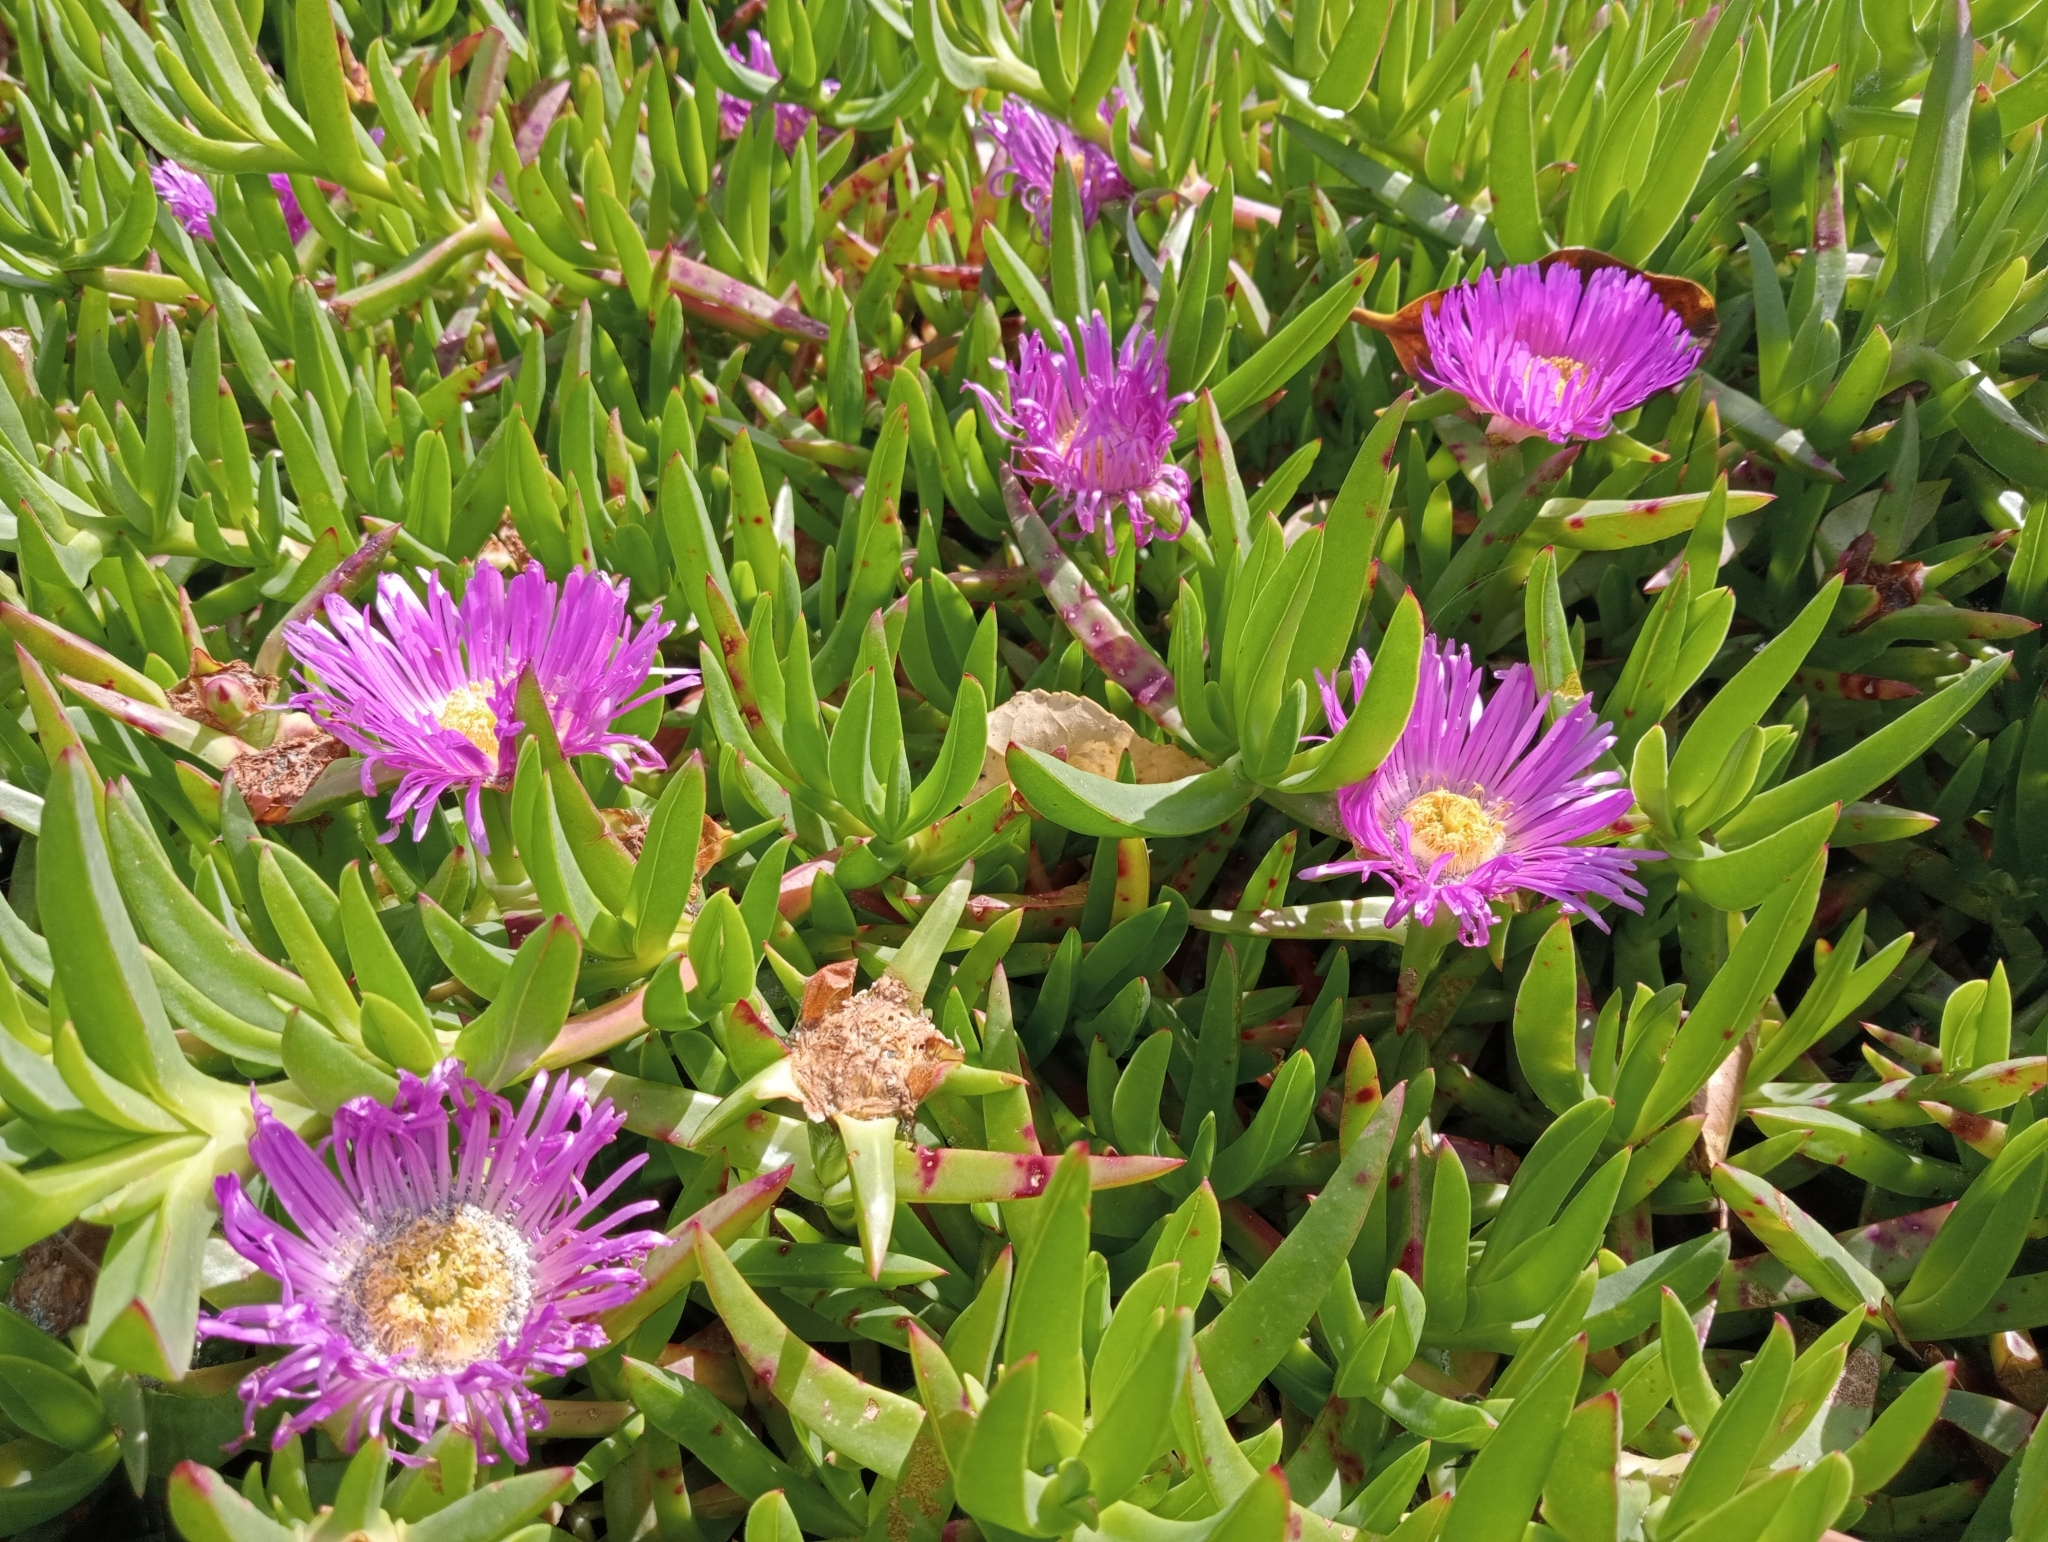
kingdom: Plantae
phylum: Tracheophyta
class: Magnoliopsida
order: Caryophyllales
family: Aizoaceae
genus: Carpobrotus
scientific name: Carpobrotus chilensis
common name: Sea fig
